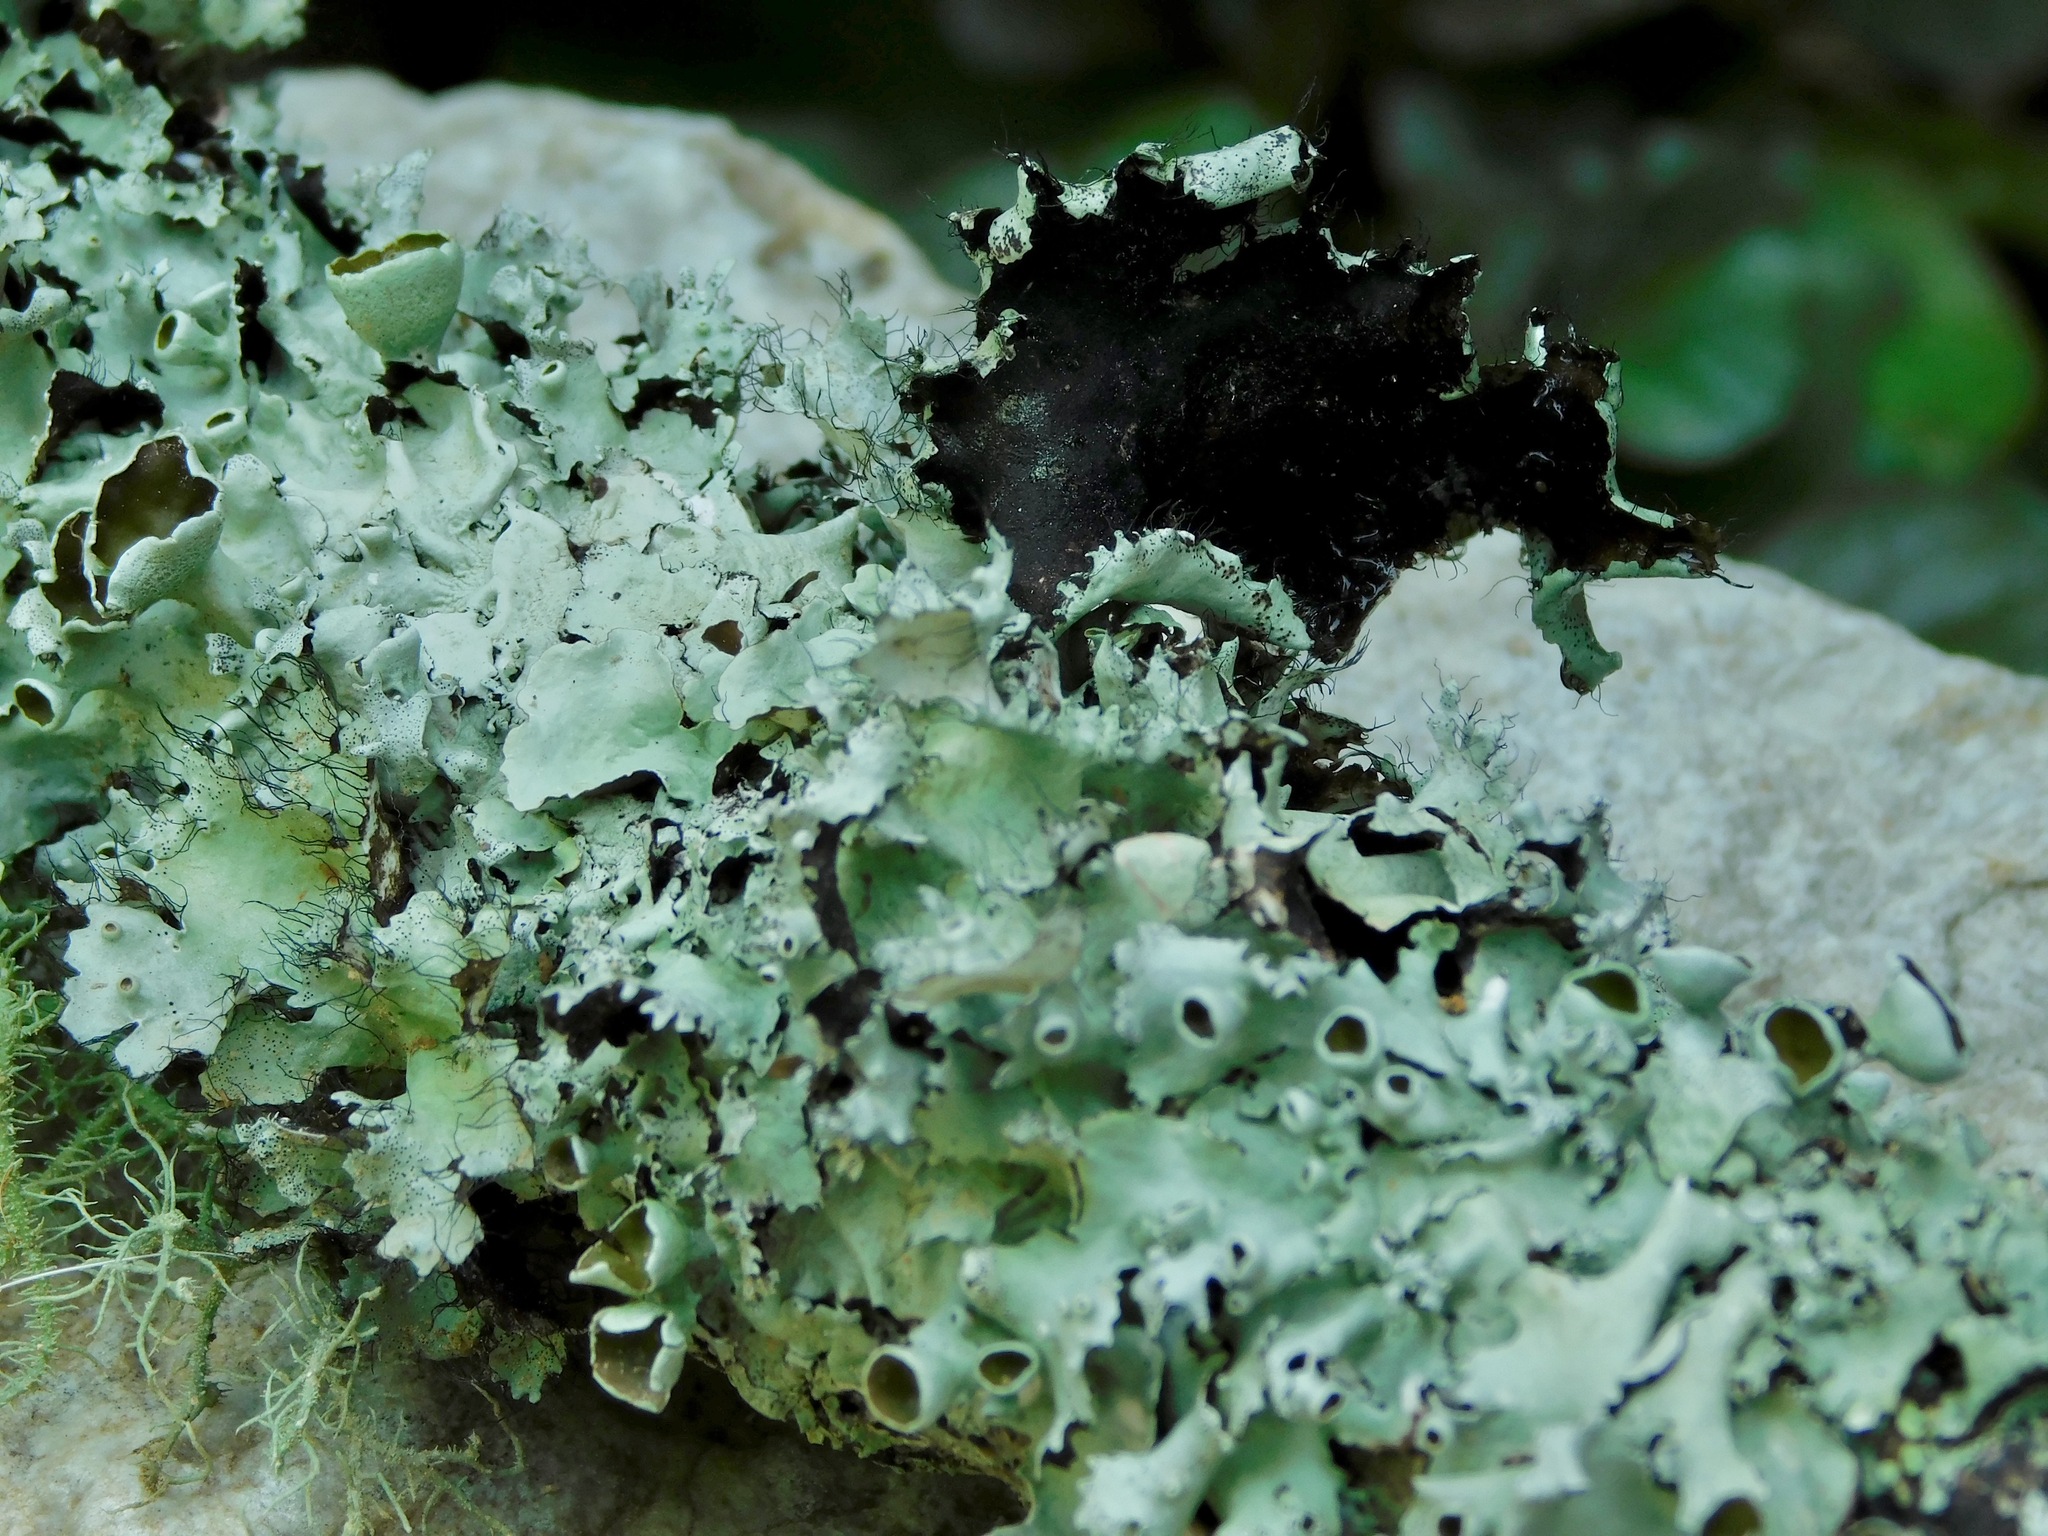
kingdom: Fungi
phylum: Ascomycota
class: Lecanoromycetes
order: Lecanorales
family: Parmeliaceae
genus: Parmotrema
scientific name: Parmotrema cetratum
